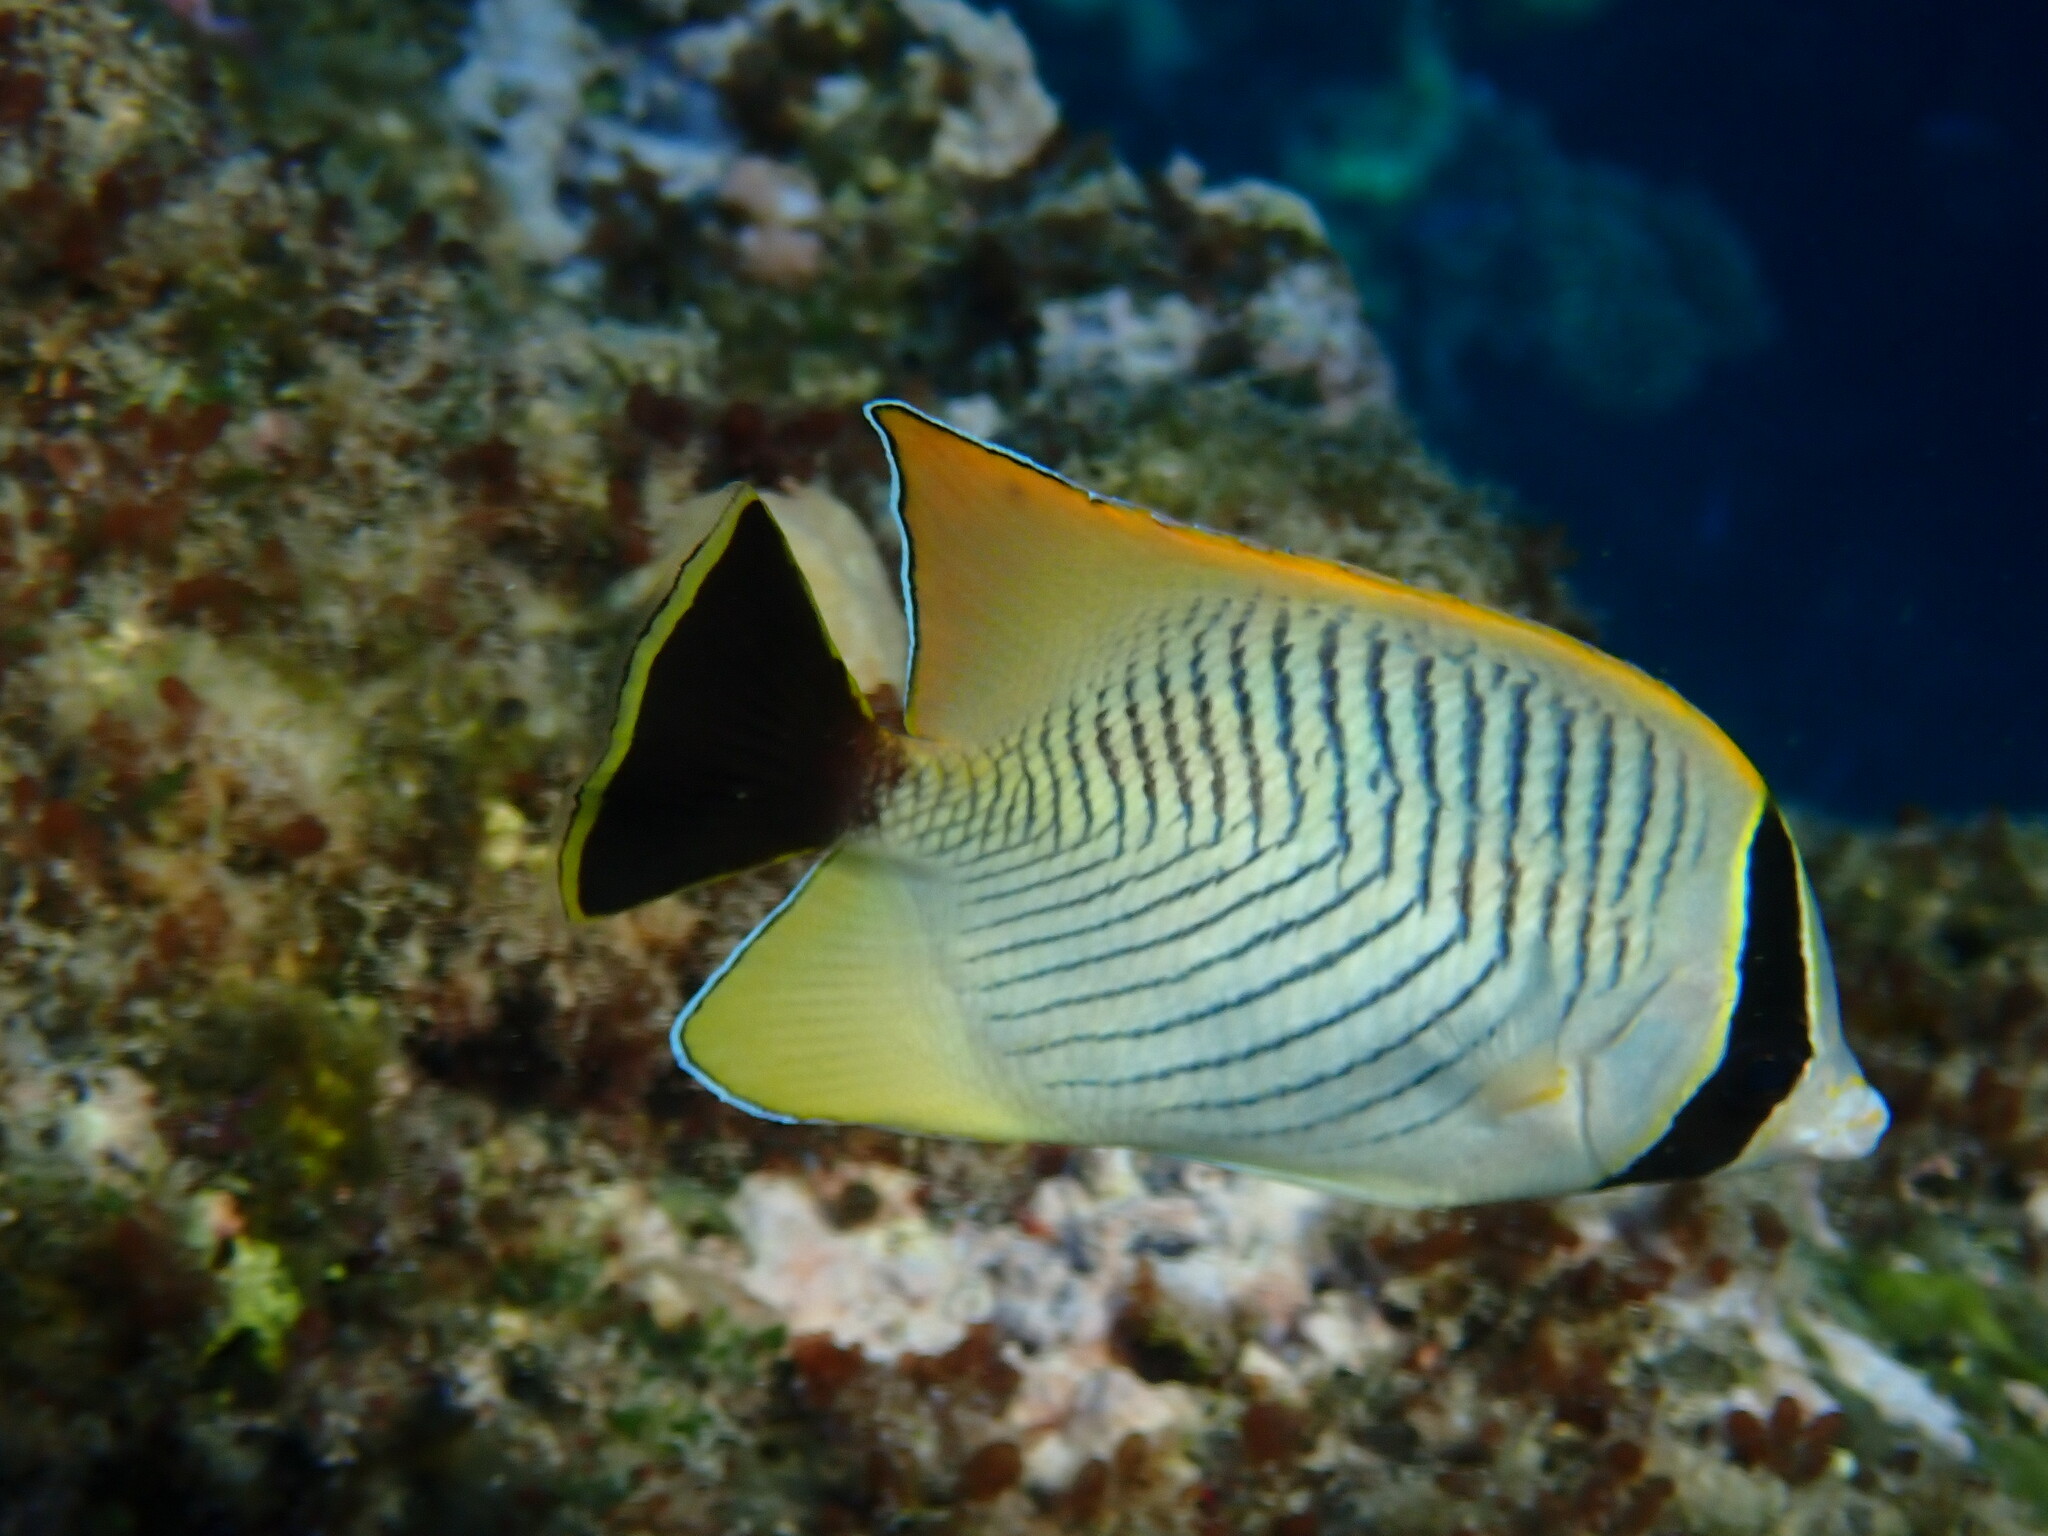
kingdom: Animalia
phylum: Chordata
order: Perciformes
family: Chaetodontidae
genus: Chaetodon
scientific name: Chaetodon trifascialis
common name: Chevroned butterflyfish
